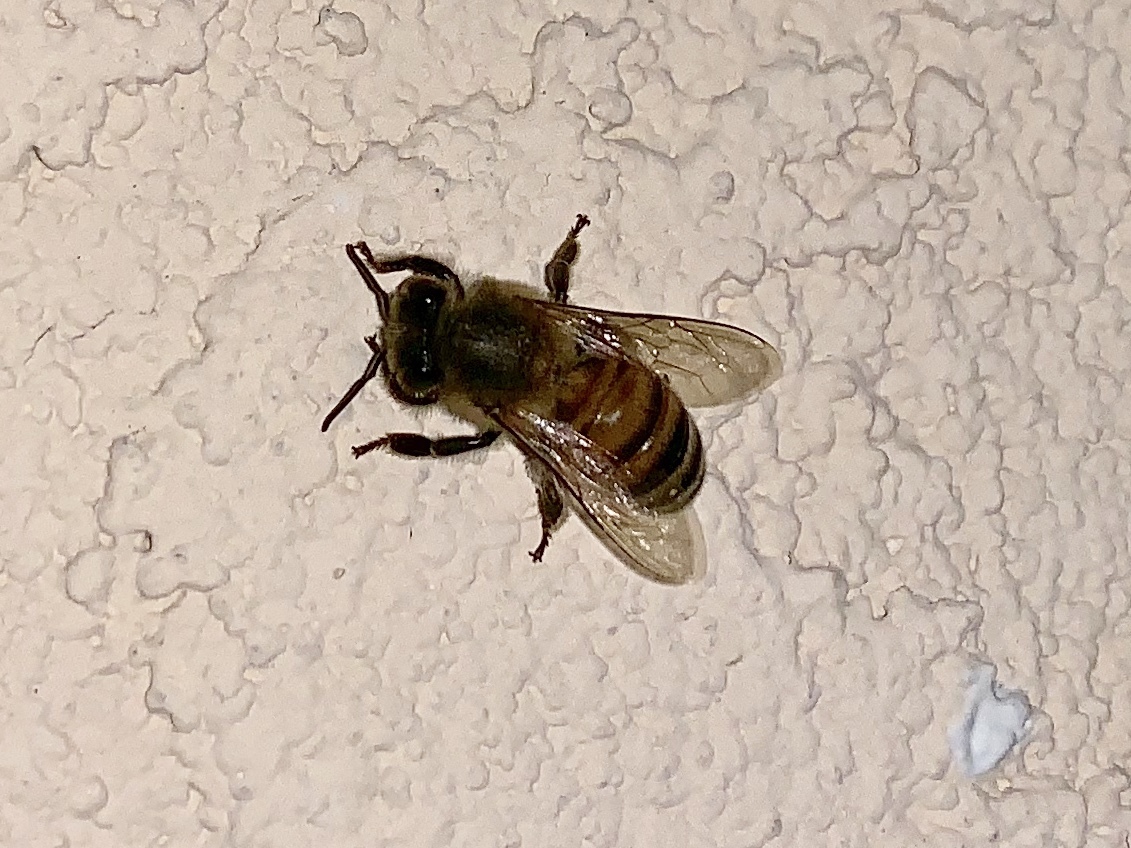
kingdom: Animalia
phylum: Arthropoda
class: Insecta
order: Hymenoptera
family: Apidae
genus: Apis
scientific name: Apis mellifera
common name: Honey bee
